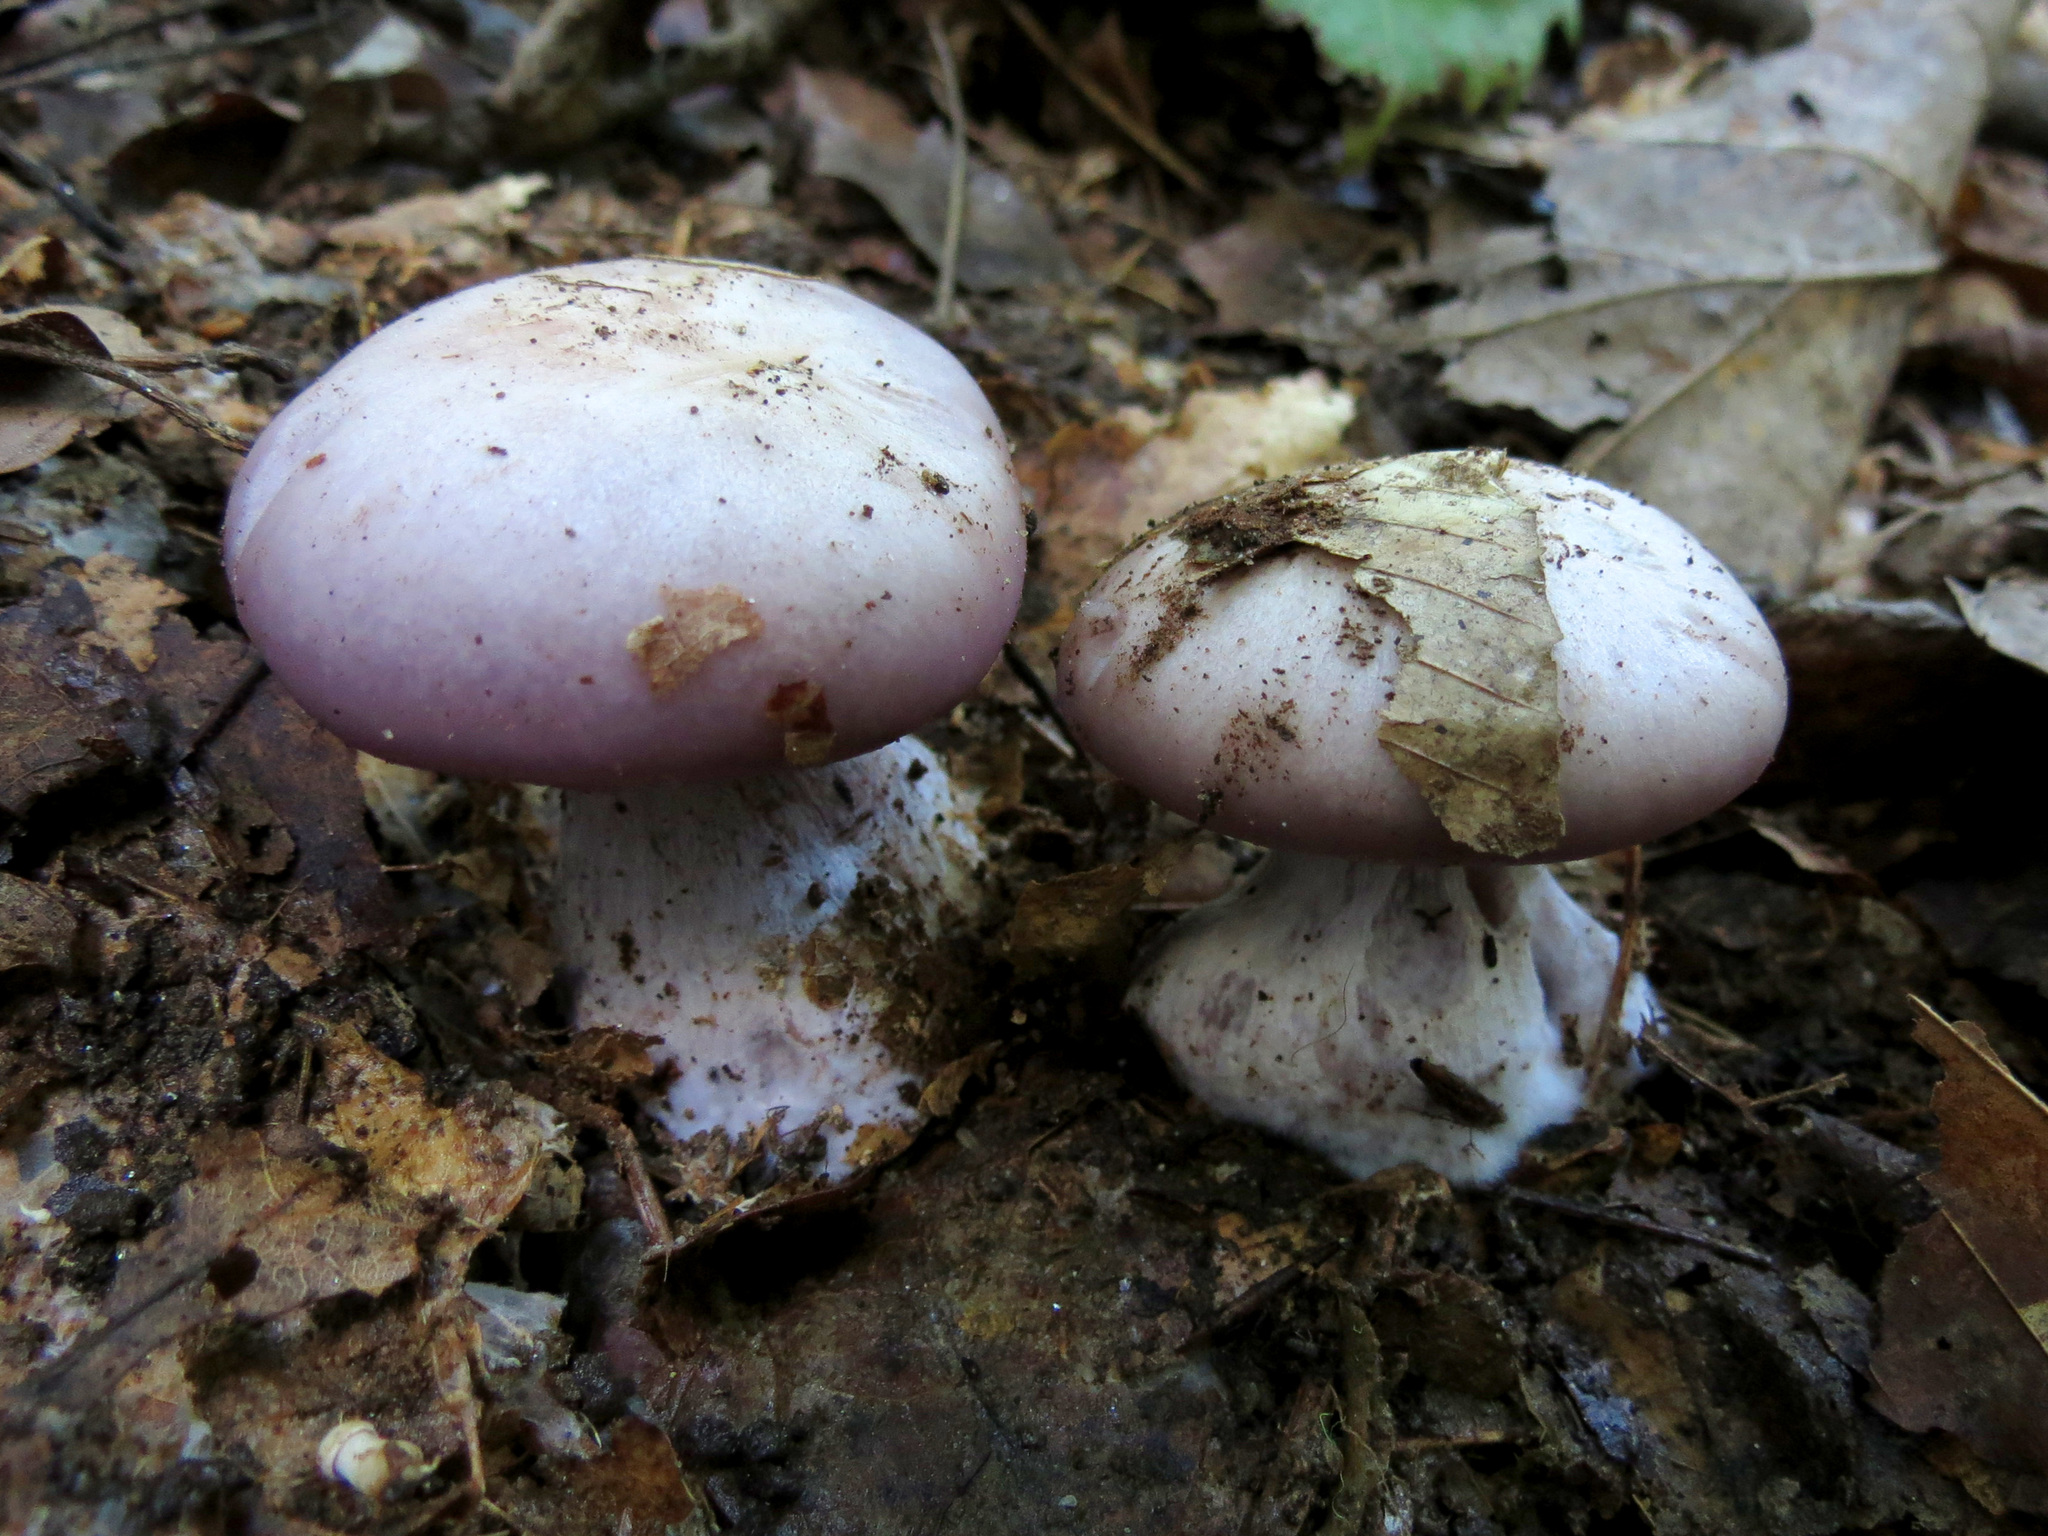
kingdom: Fungi
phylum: Basidiomycota
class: Agaricomycetes
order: Agaricales
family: Tricholomataceae
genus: Collybia
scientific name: Collybia
